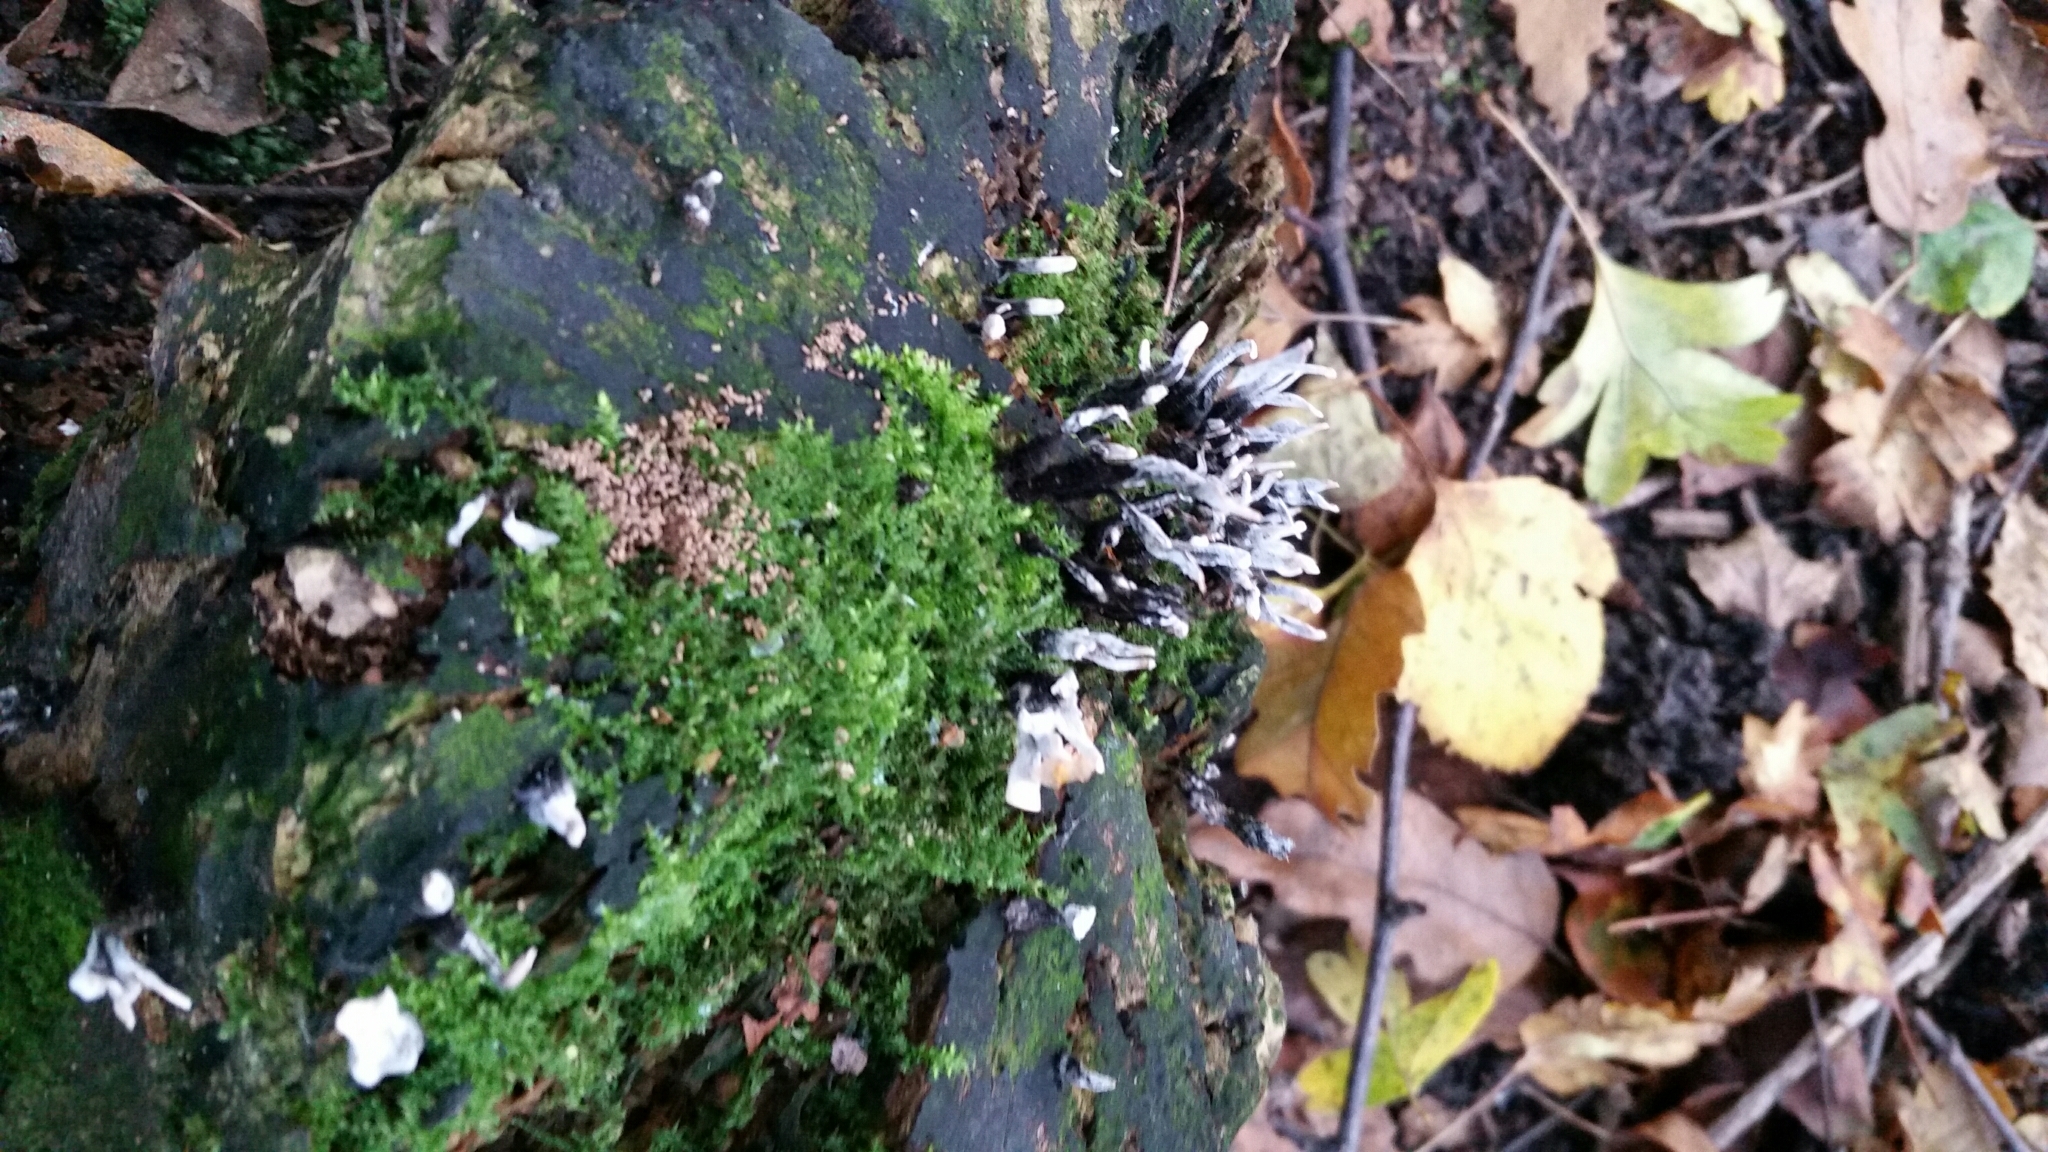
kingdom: Fungi
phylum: Ascomycota
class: Sordariomycetes
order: Xylariales
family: Xylariaceae
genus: Xylaria
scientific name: Xylaria hypoxylon
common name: Candle-snuff fungus
